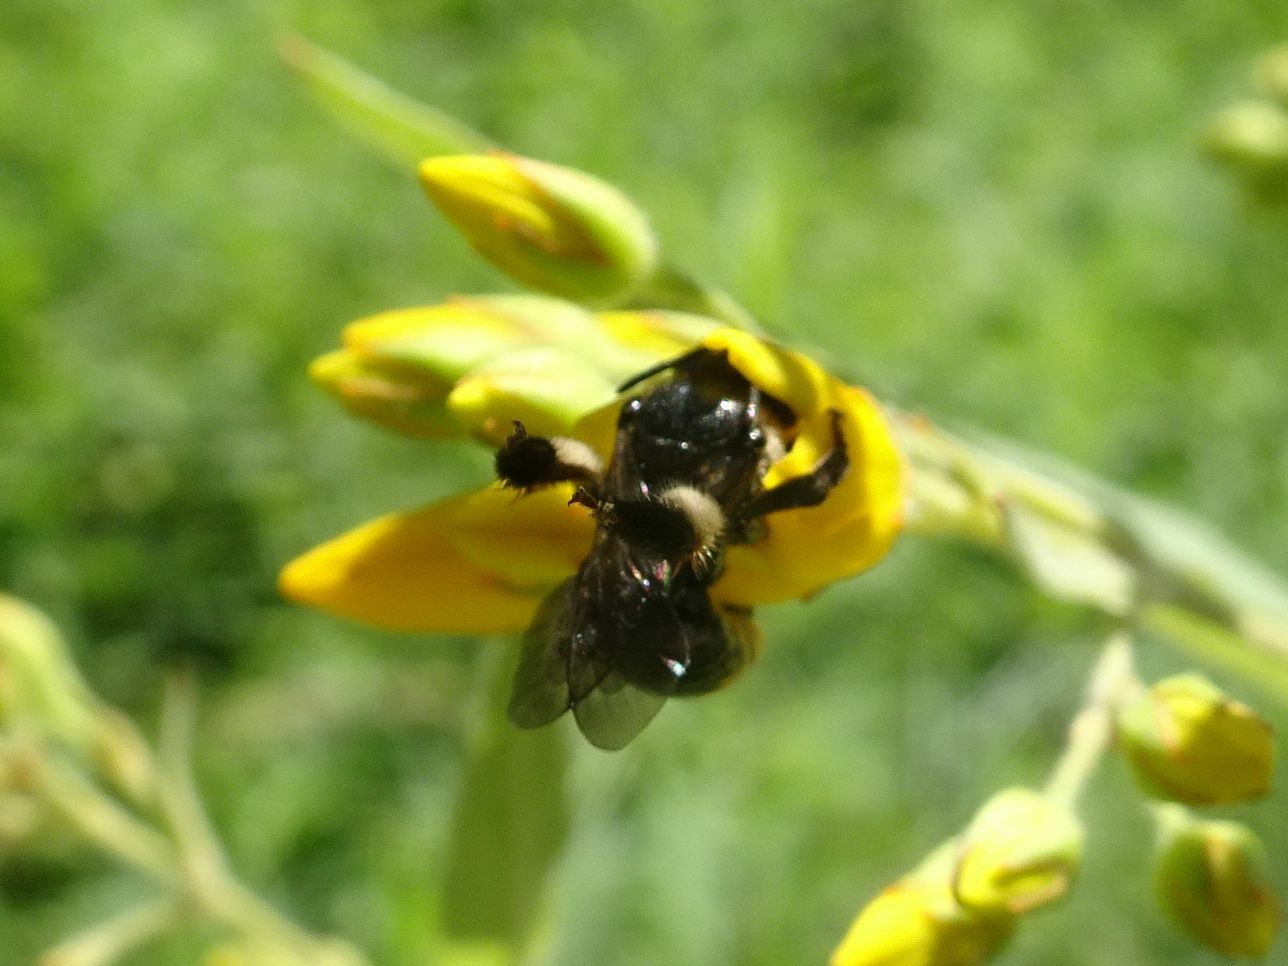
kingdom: Animalia
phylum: Arthropoda
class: Insecta
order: Hymenoptera
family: Melittidae
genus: Macropis
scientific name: Macropis europaea
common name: Yellow loosestrife bee
